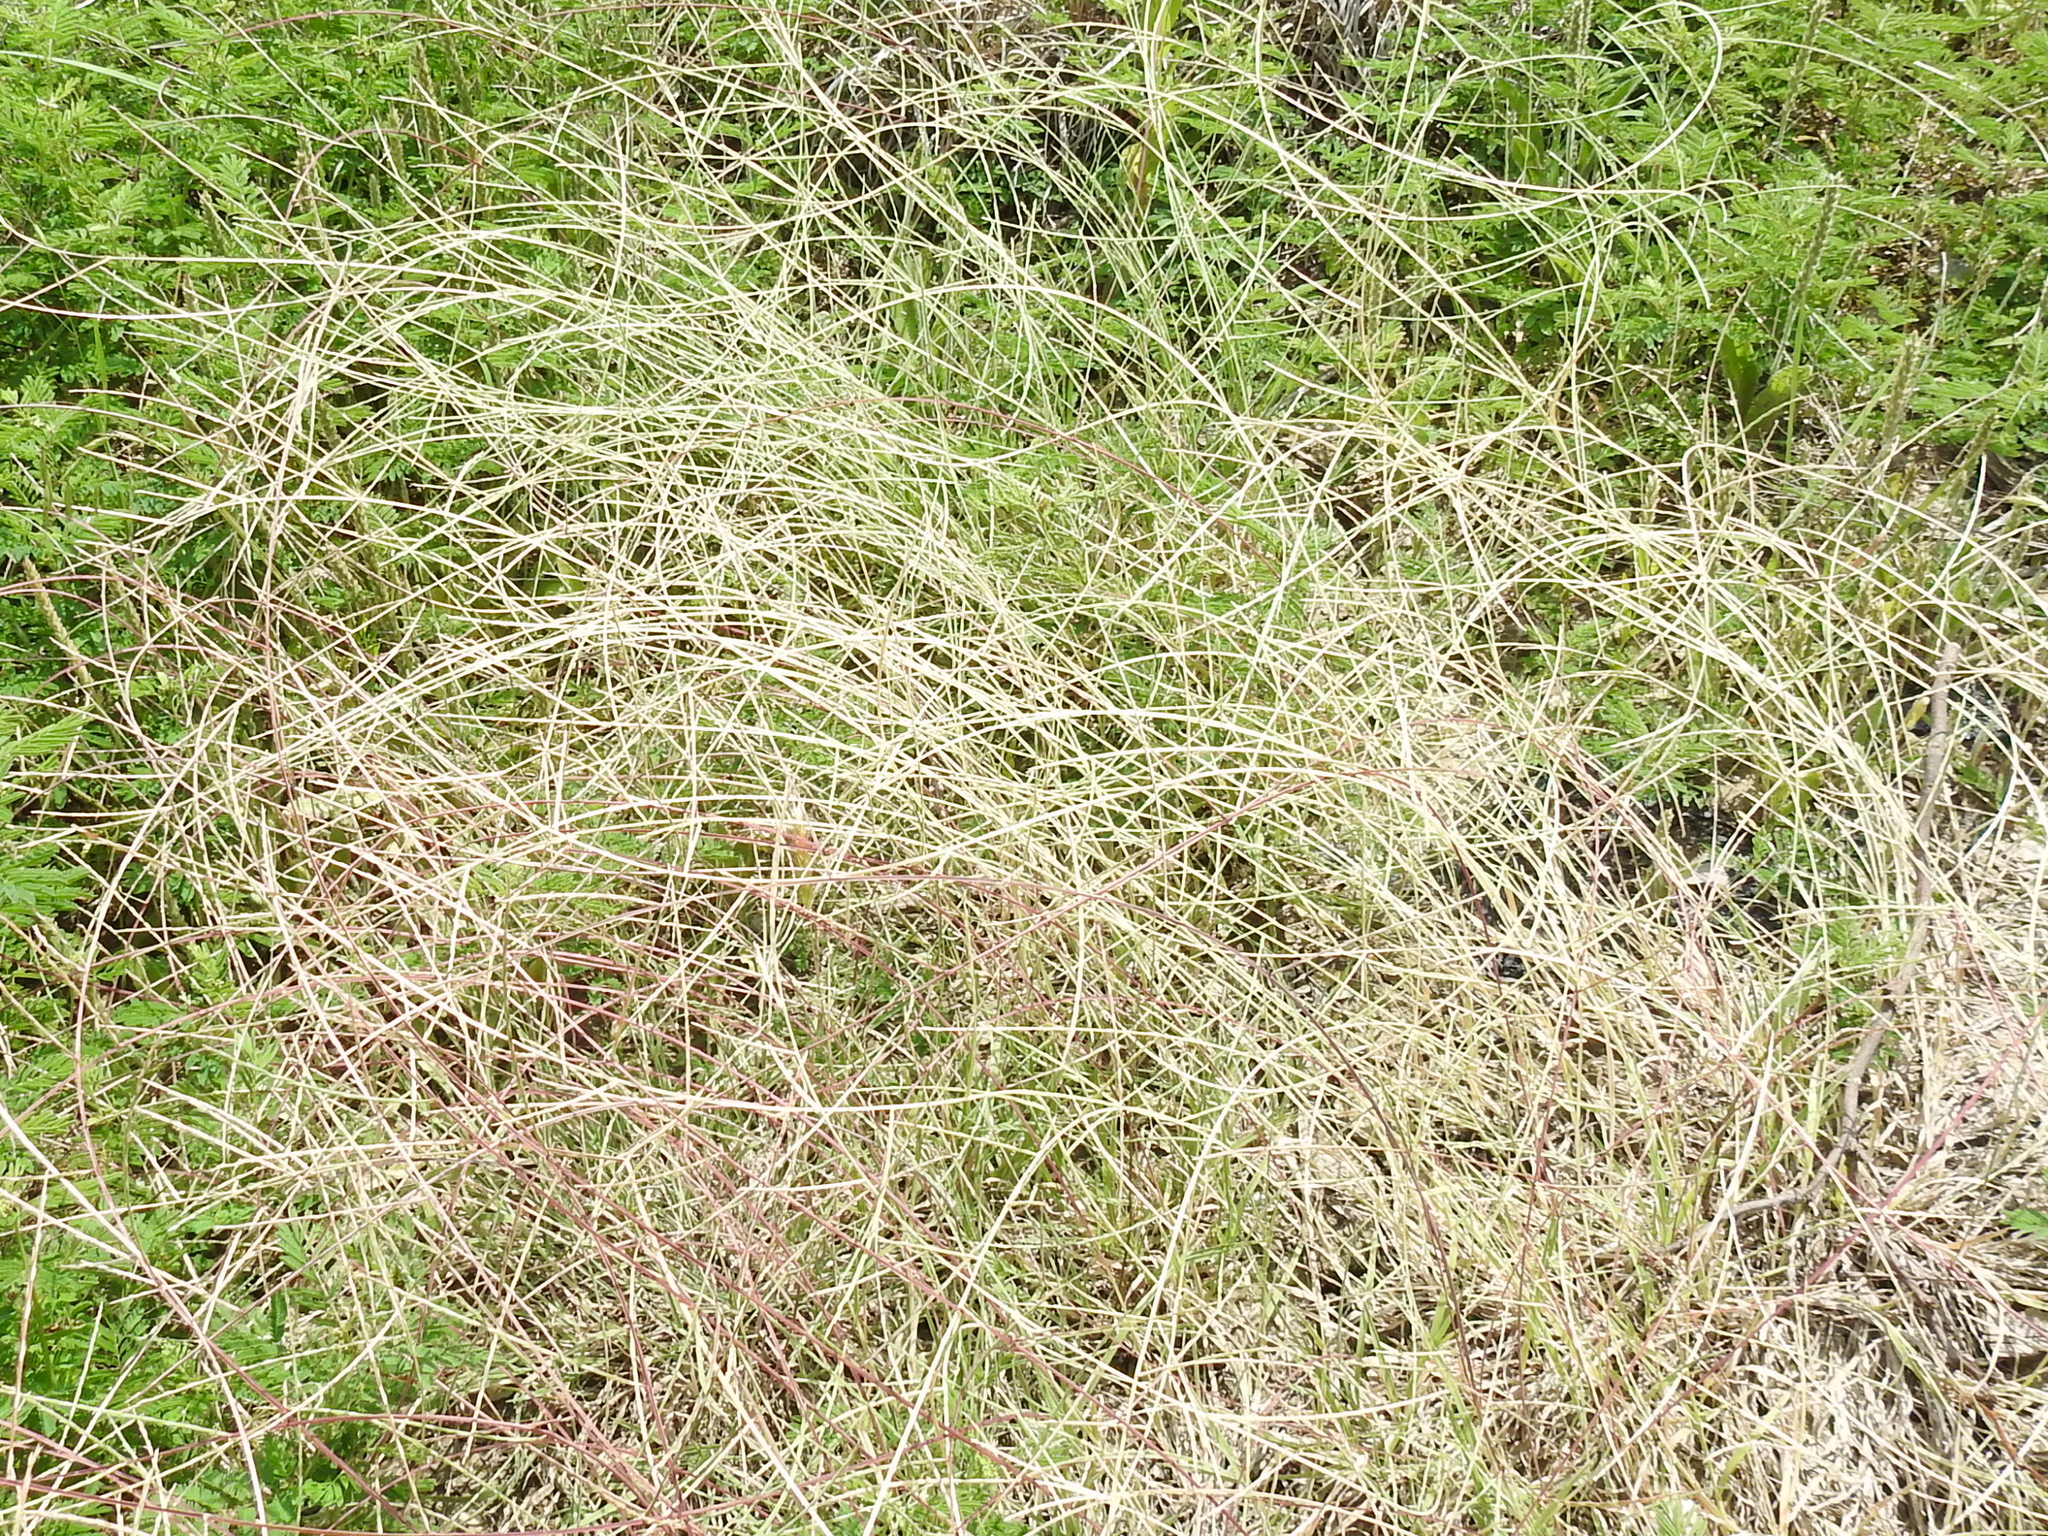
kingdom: Plantae
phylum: Tracheophyta
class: Liliopsida
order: Poales
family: Poaceae
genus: Muhlenbergia
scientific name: Muhlenbergia paniculata
